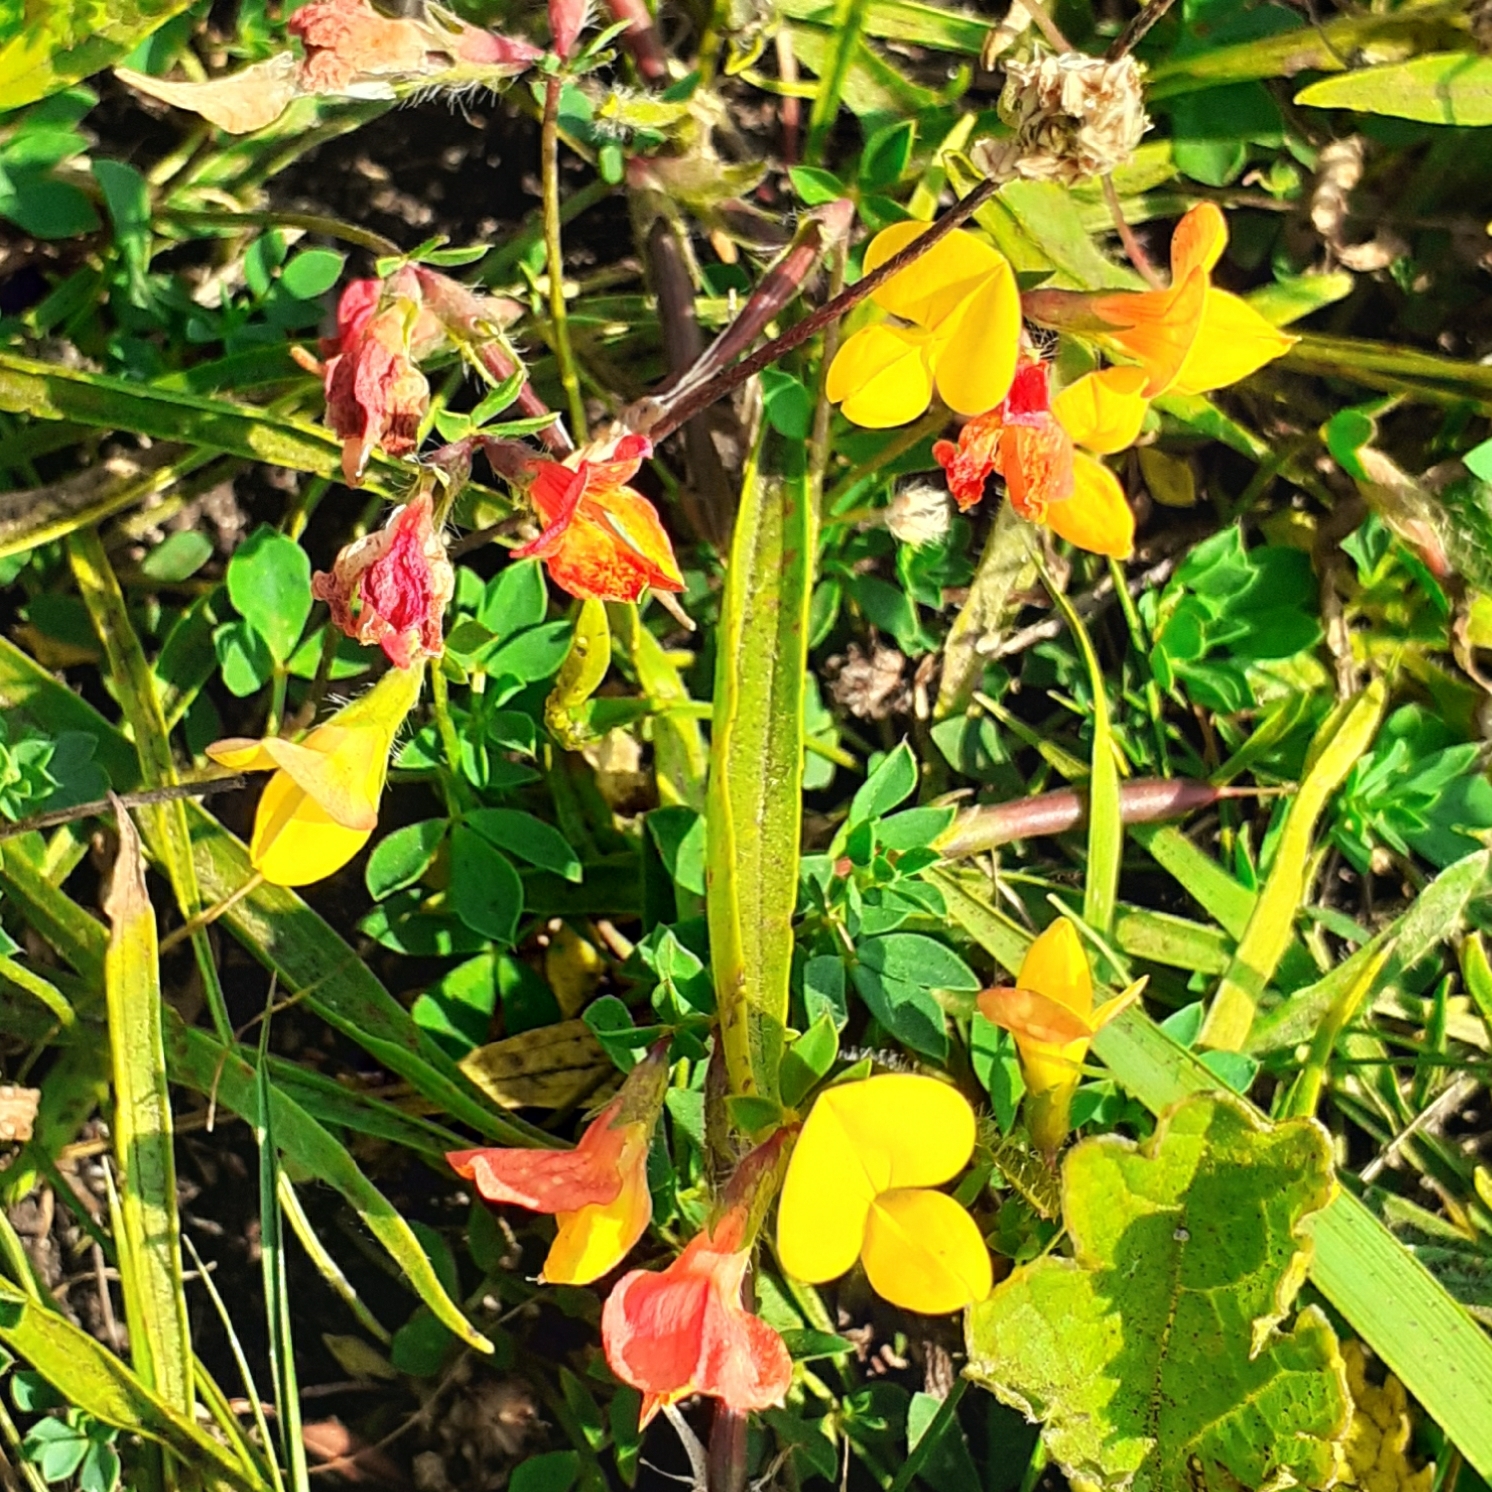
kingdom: Plantae
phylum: Tracheophyta
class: Magnoliopsida
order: Fabales
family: Fabaceae
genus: Lotus
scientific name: Lotus corniculatus
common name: Common bird's-foot-trefoil
